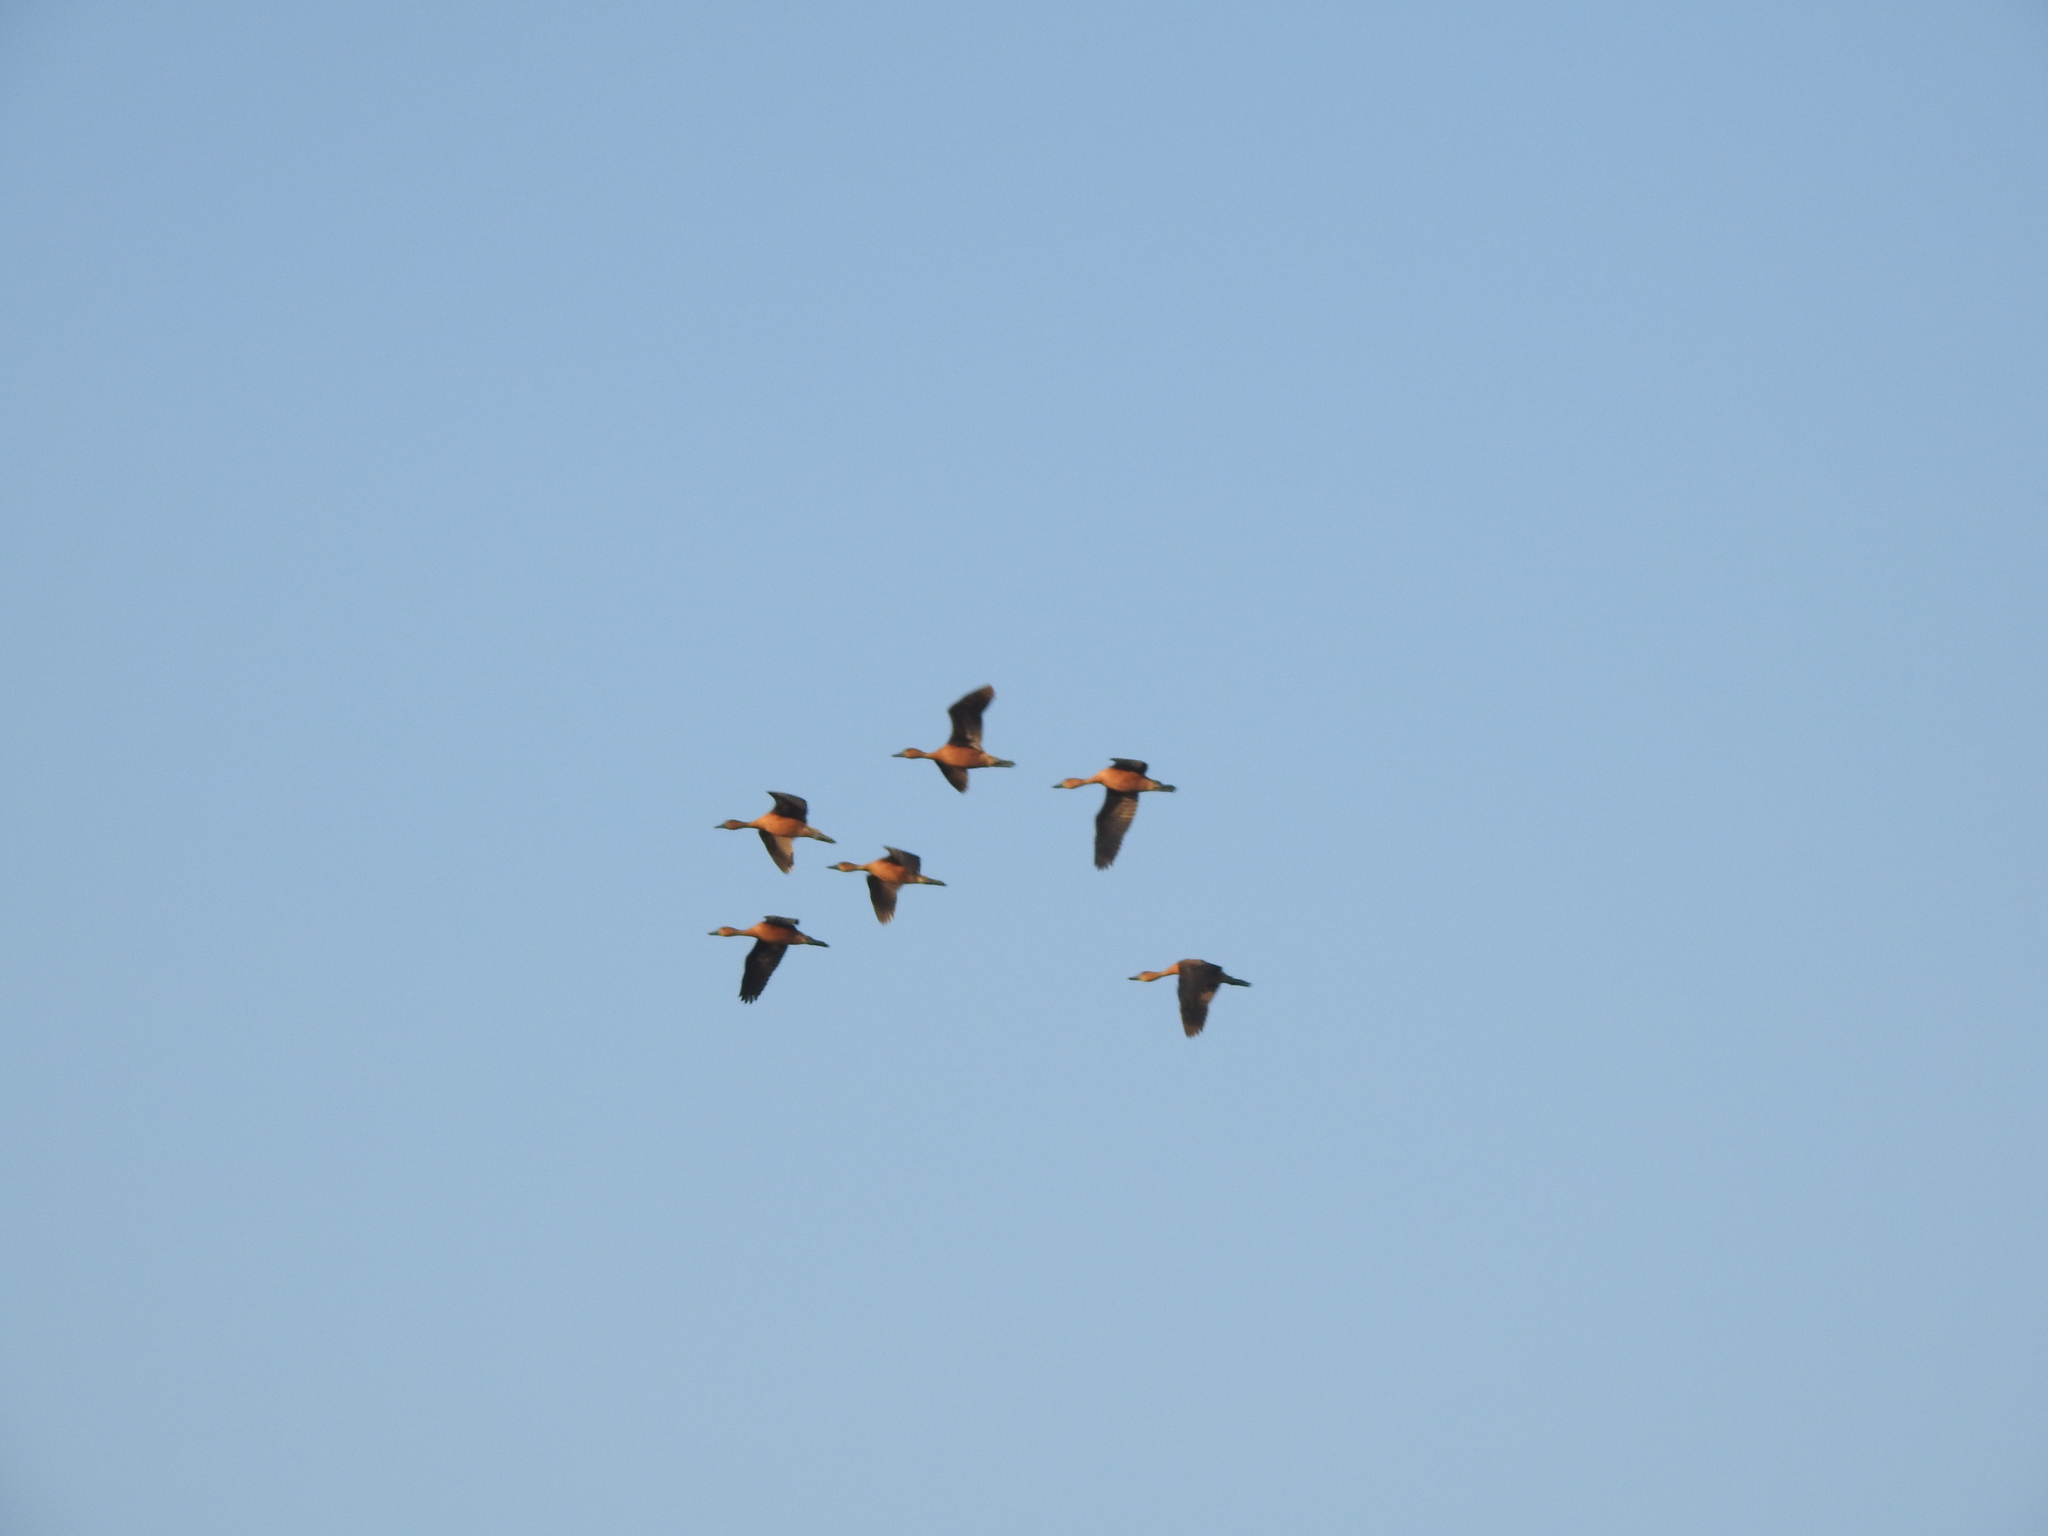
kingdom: Animalia
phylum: Chordata
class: Aves
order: Anseriformes
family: Anatidae
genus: Dendrocygna
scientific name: Dendrocygna bicolor
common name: Fulvous whistling duck
